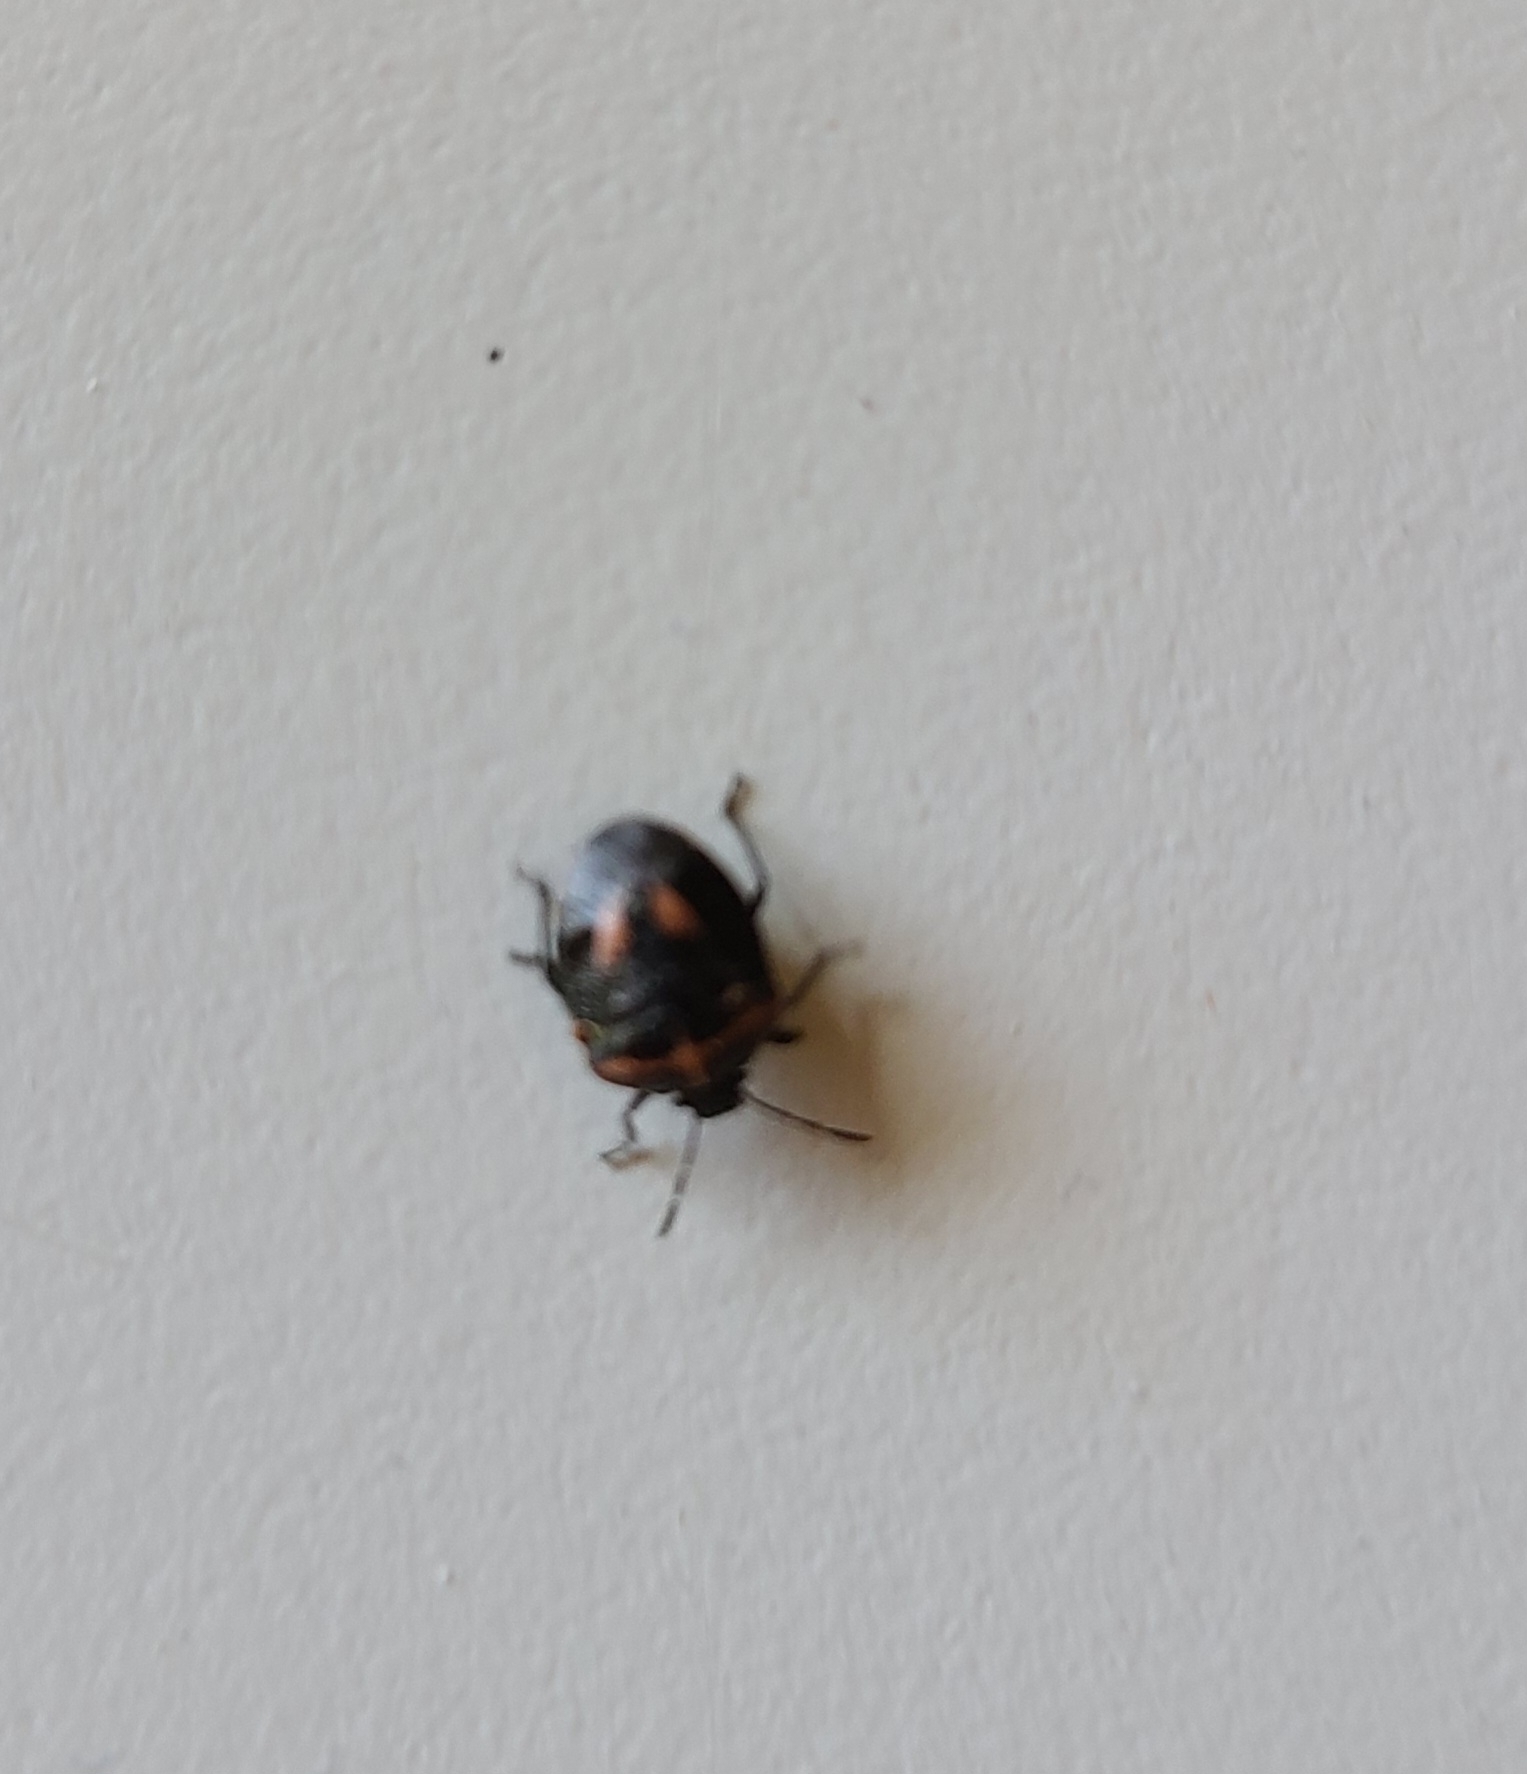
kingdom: Animalia
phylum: Arthropoda
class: Insecta
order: Hemiptera
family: Pentatomidae
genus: Cosmopepla
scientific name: Cosmopepla lintneriana
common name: Twice-stabbed stink bug
